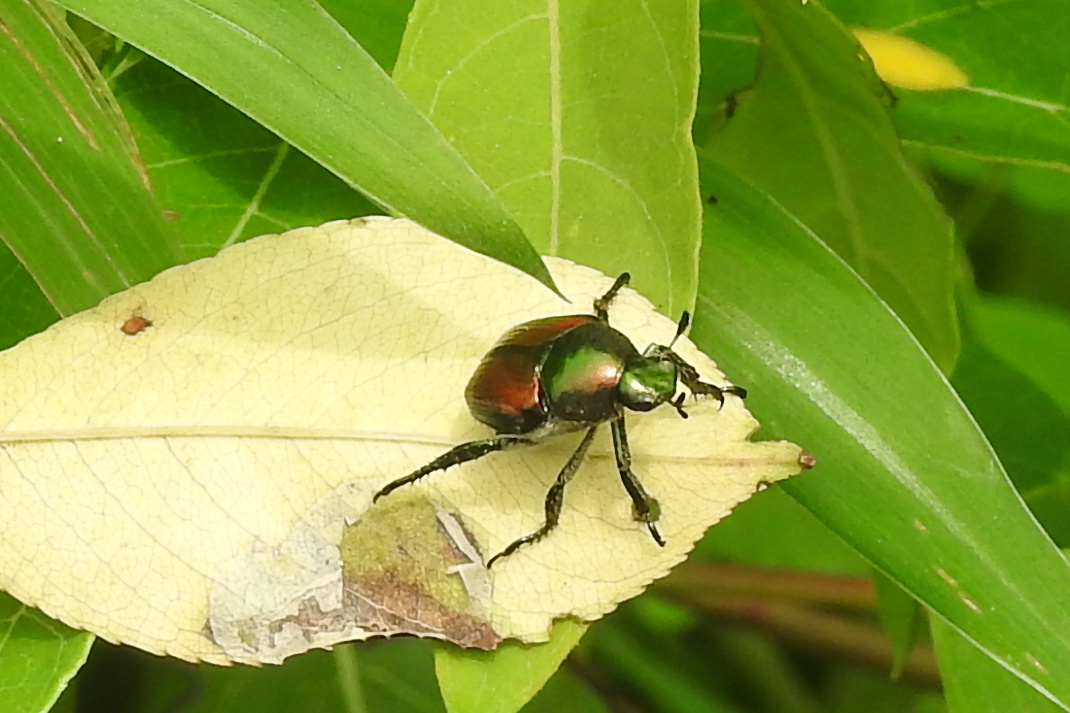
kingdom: Animalia
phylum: Arthropoda
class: Insecta
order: Coleoptera
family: Scarabaeidae
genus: Popillia
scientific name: Popillia japonica
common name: Japanese beetle
